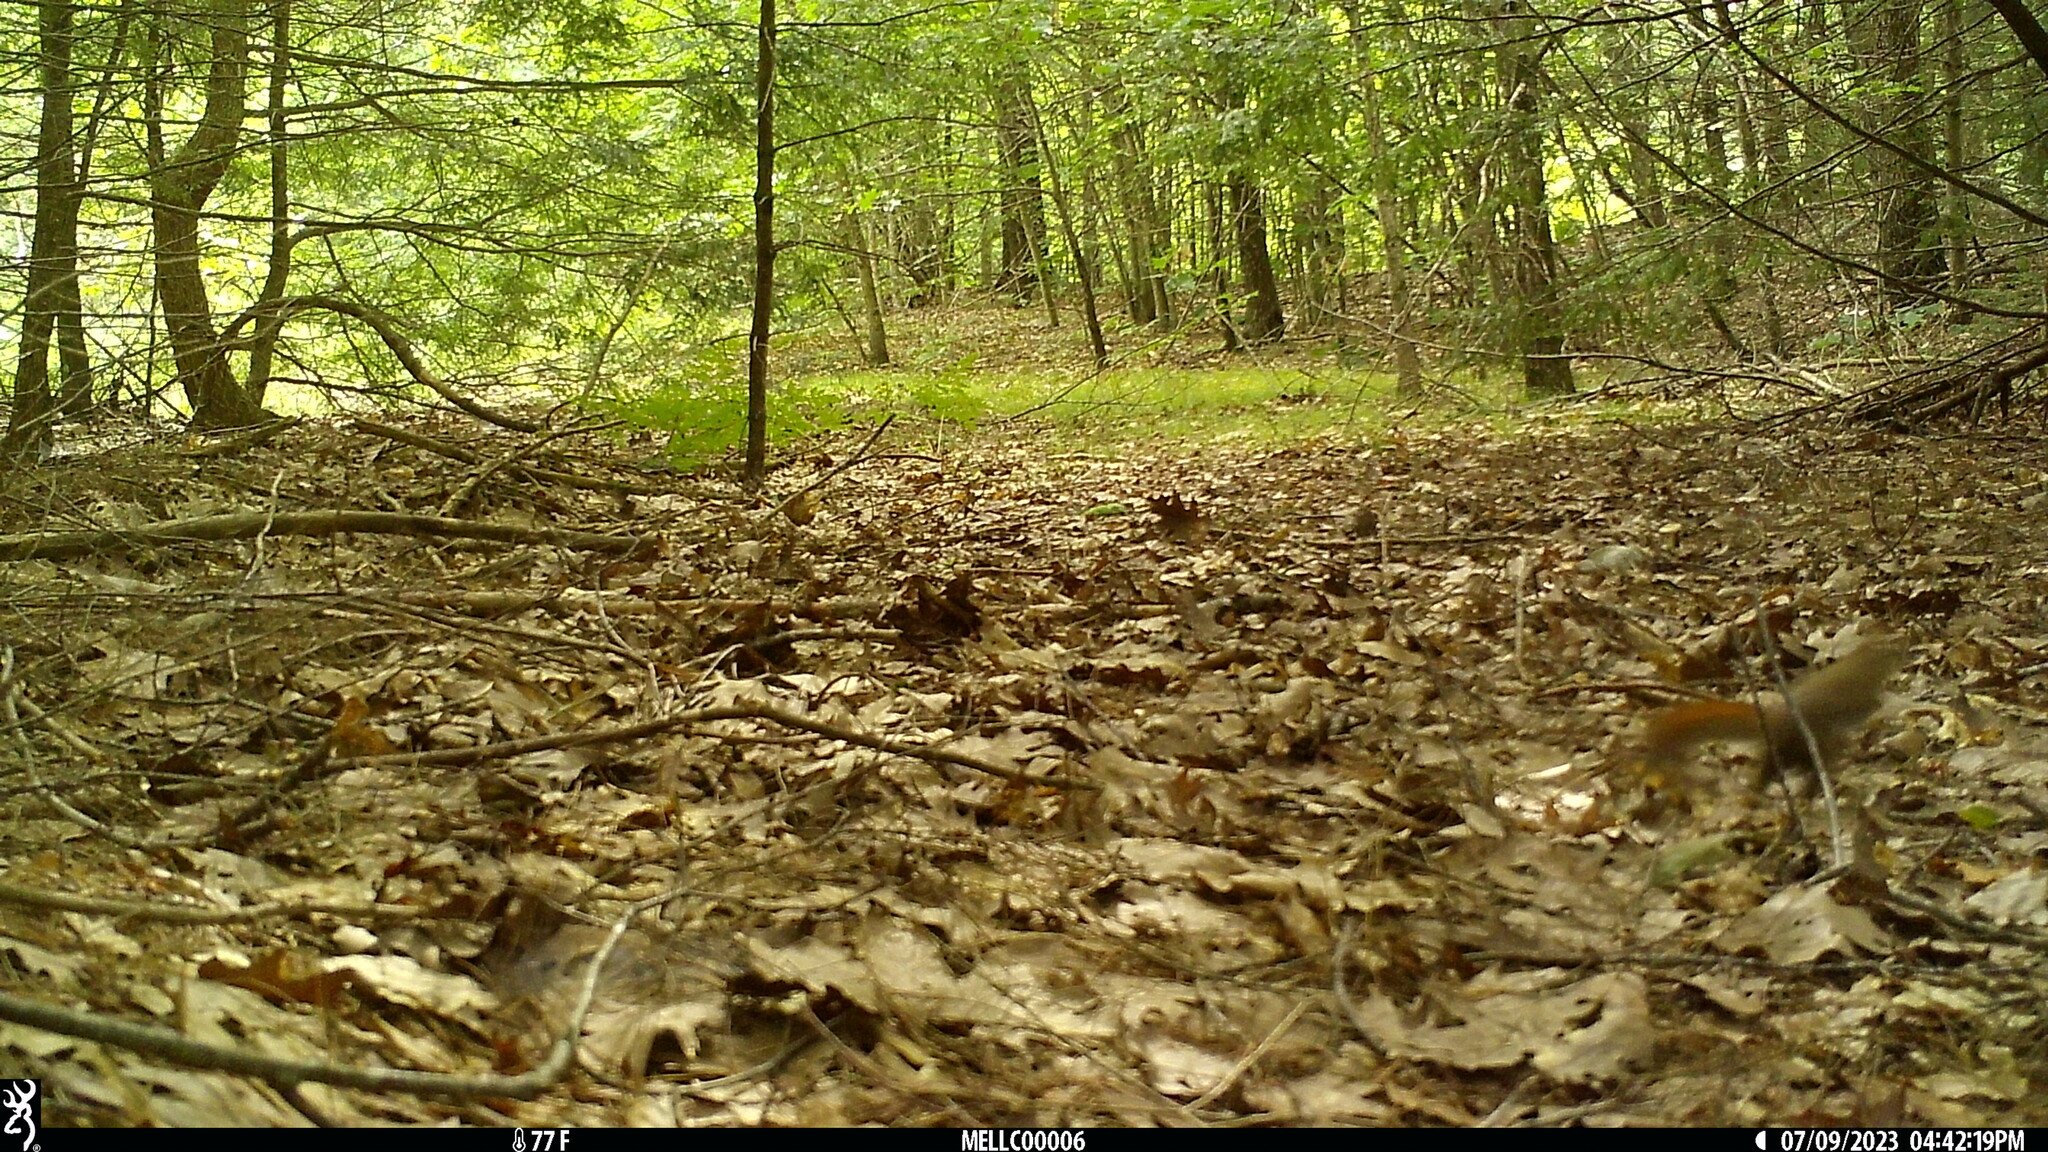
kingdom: Animalia
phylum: Chordata
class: Mammalia
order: Rodentia
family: Sciuridae
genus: Tamiasciurus
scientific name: Tamiasciurus hudsonicus
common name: Red squirrel
